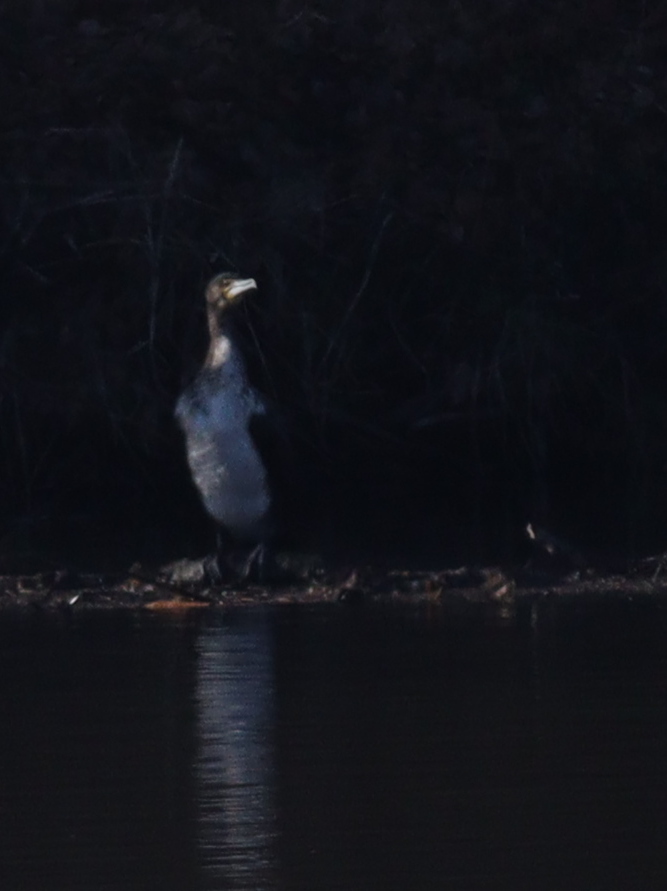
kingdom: Animalia
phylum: Chordata
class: Aves
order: Suliformes
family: Phalacrocoracidae
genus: Phalacrocorax
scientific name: Phalacrocorax carbo
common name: Great cormorant
